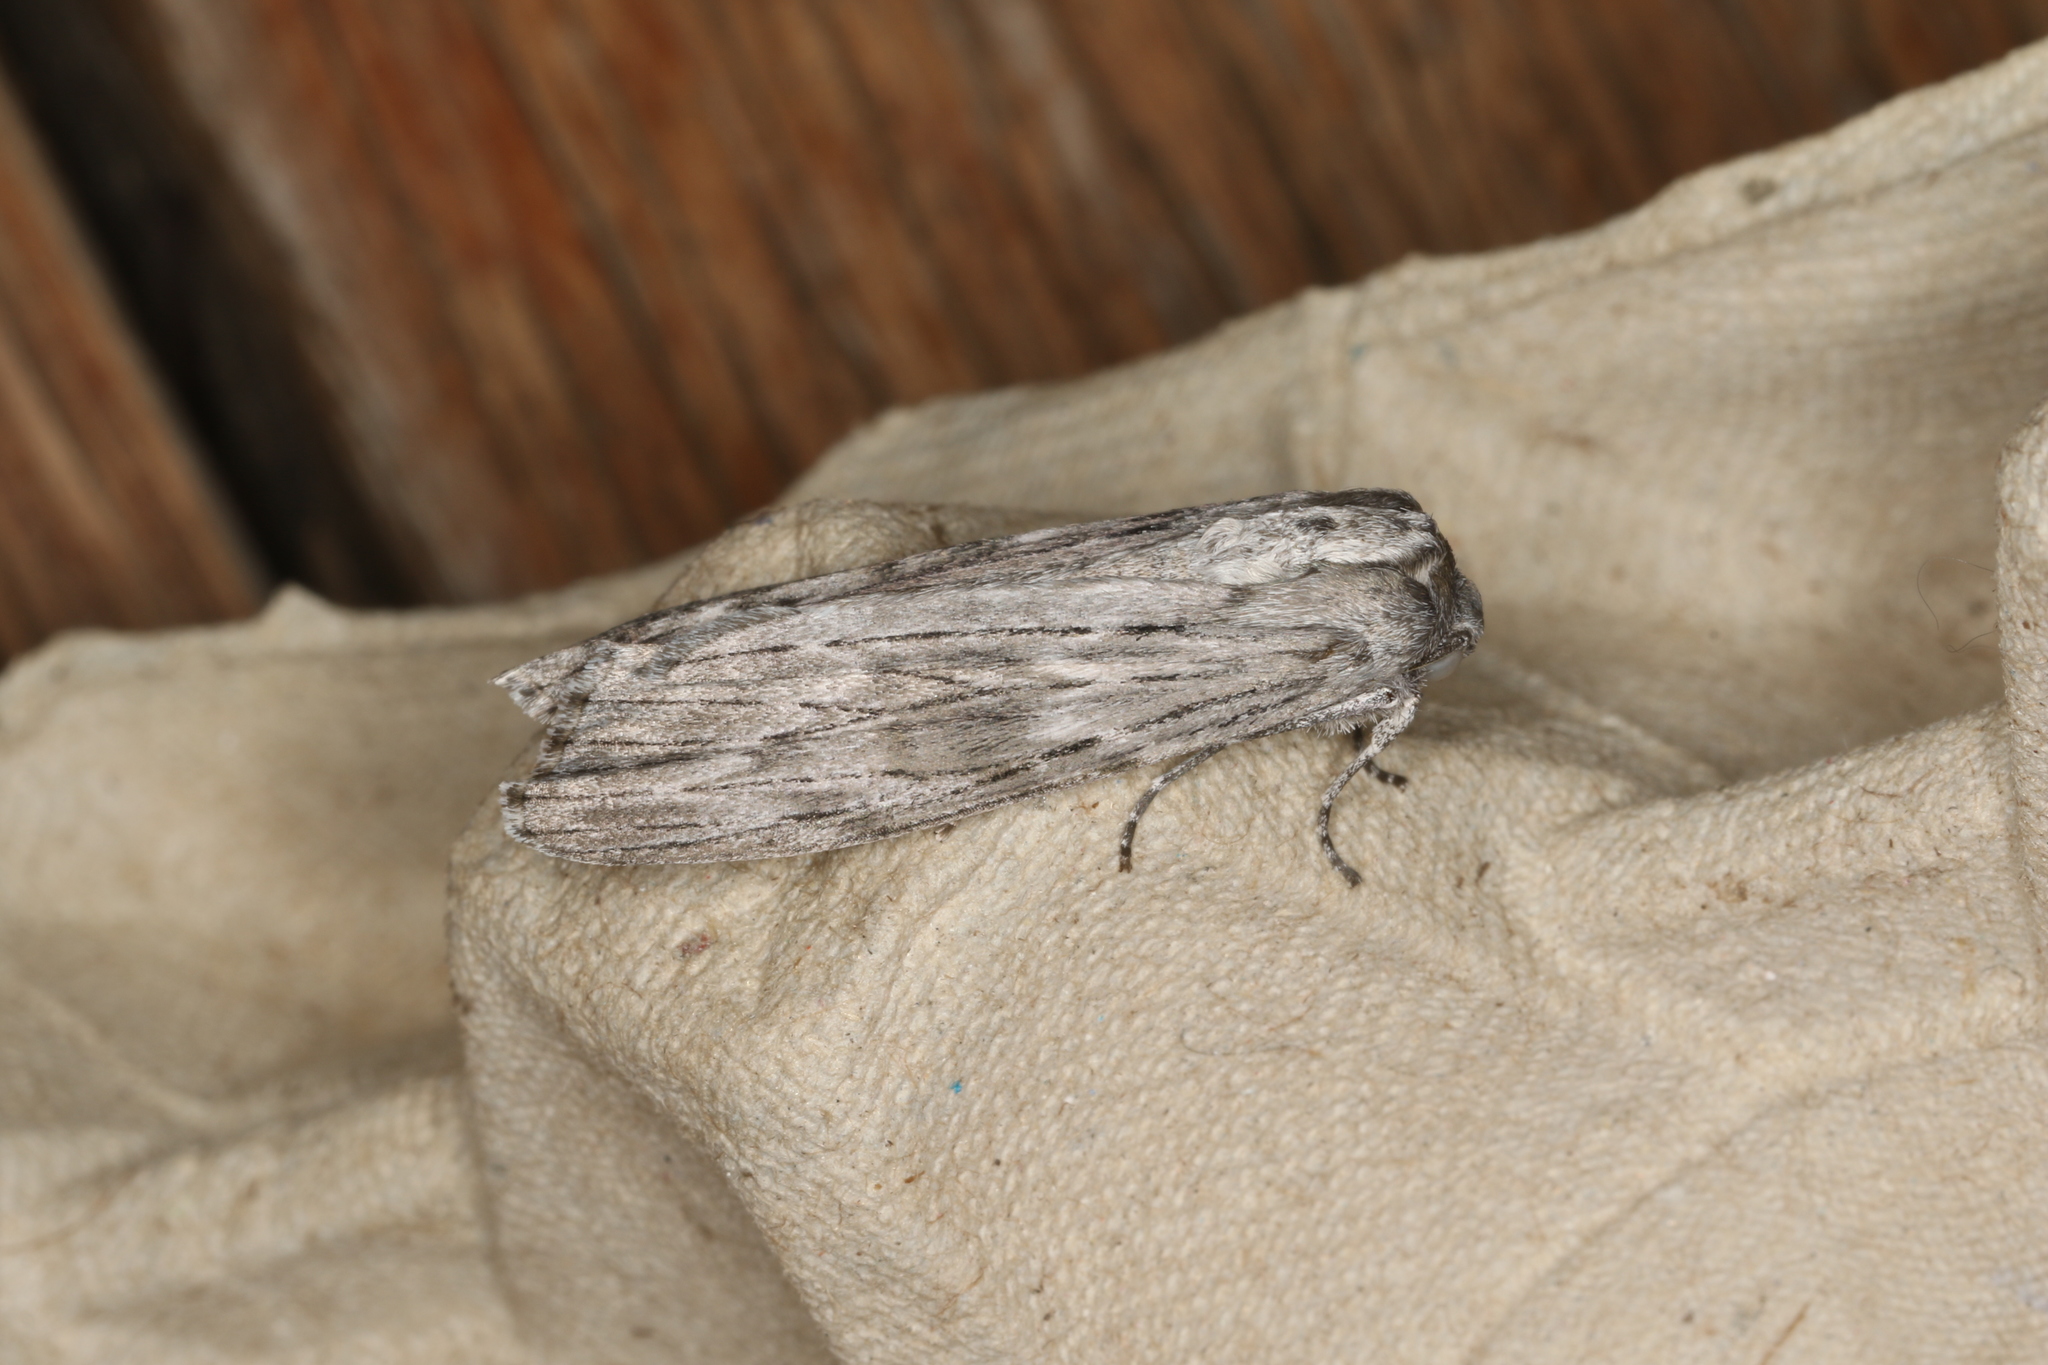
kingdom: Animalia
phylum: Arthropoda
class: Insecta
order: Lepidoptera
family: Geometridae
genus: Capusa
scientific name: Capusa senilis
